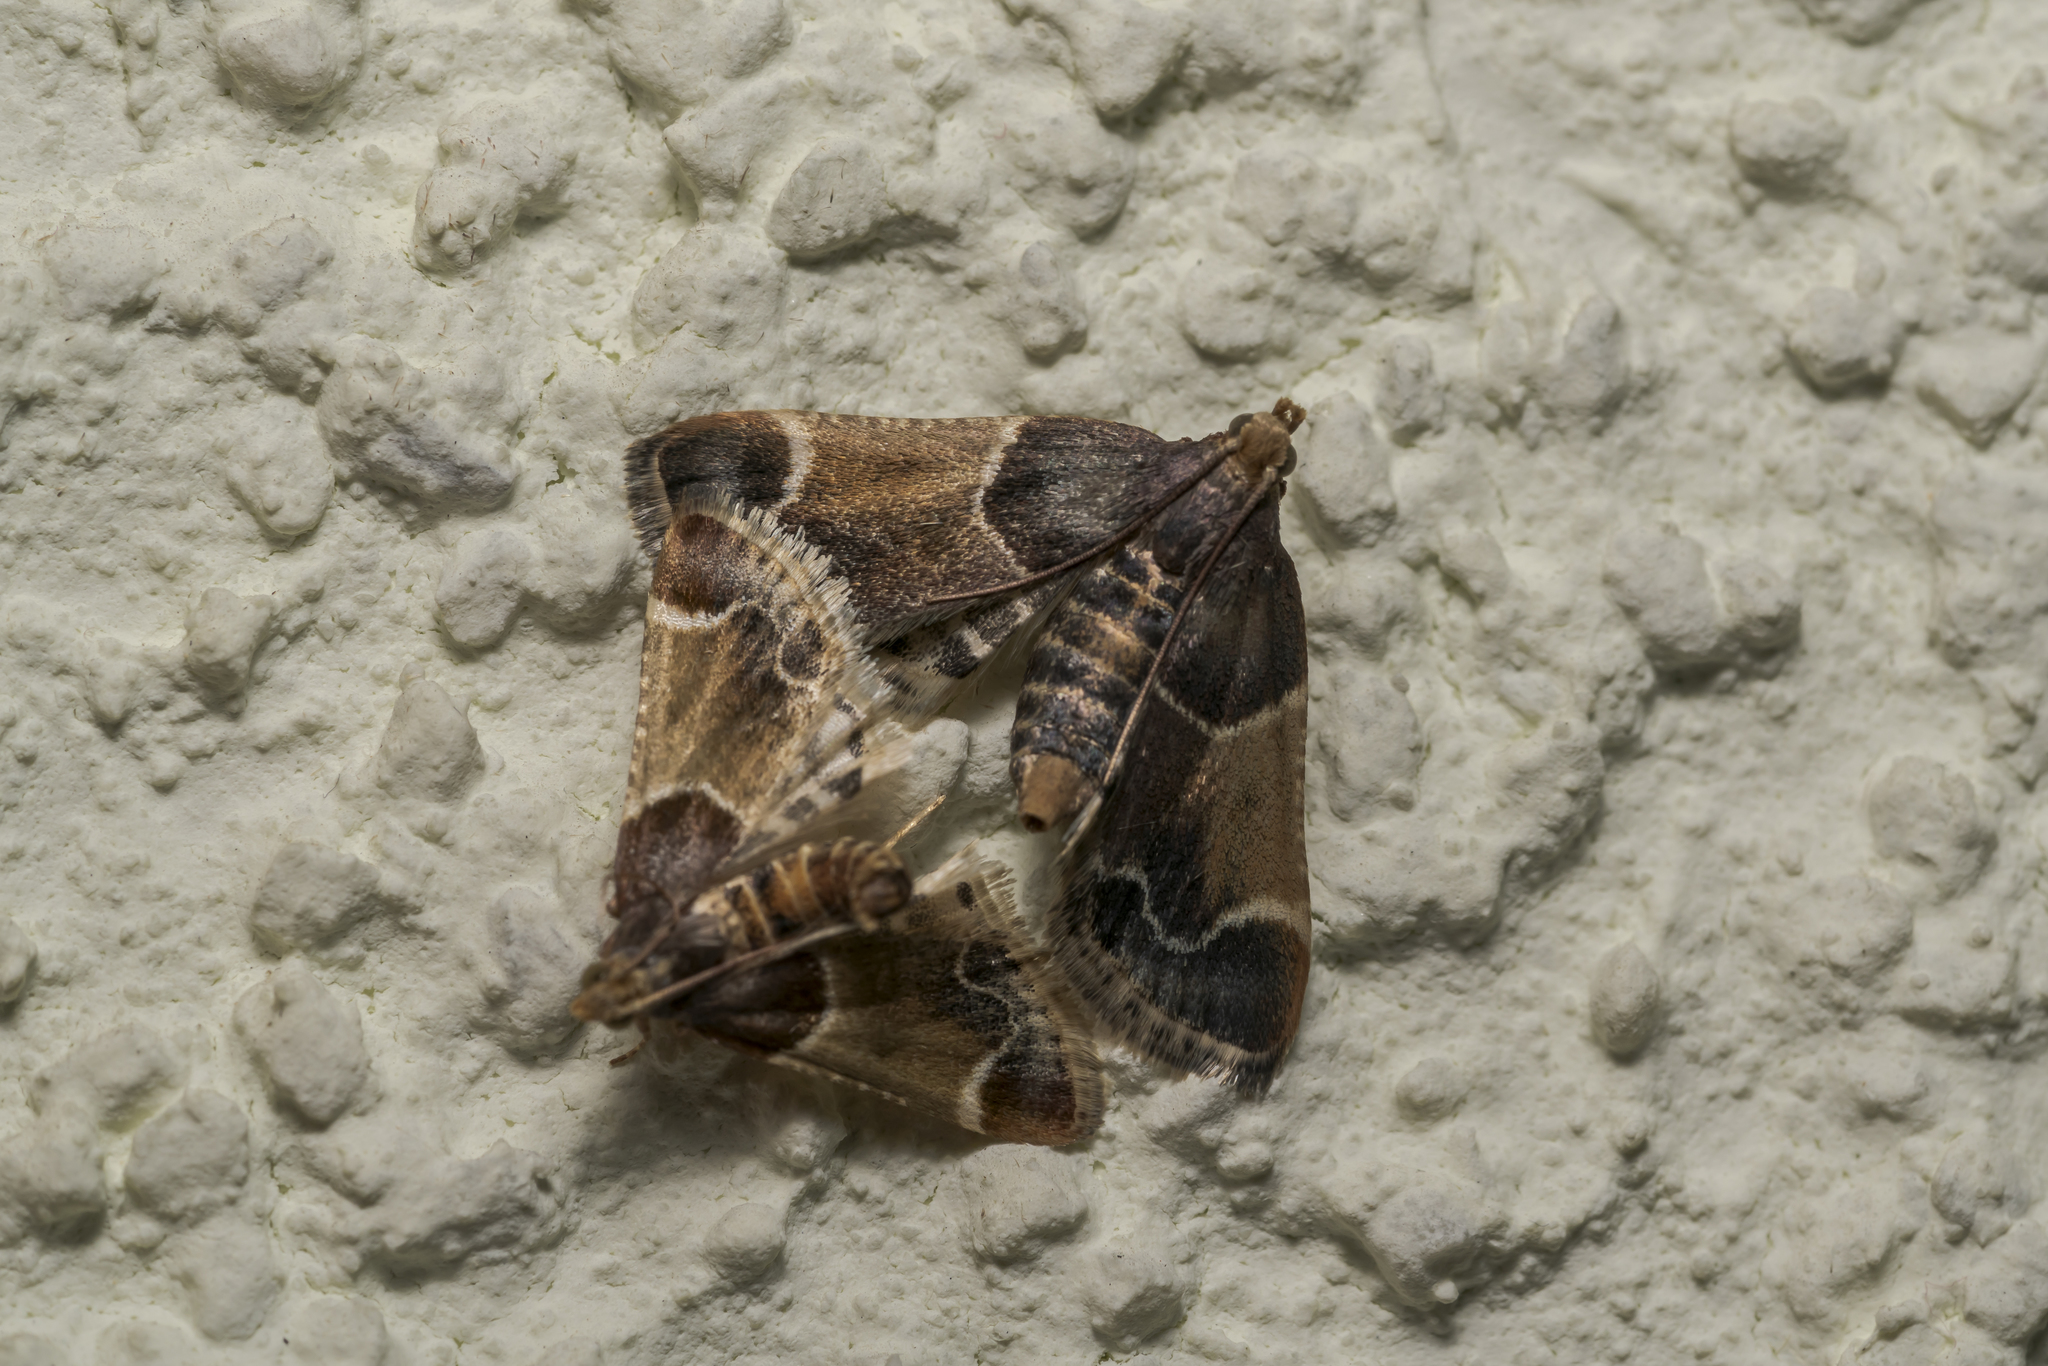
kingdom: Animalia
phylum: Arthropoda
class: Insecta
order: Lepidoptera
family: Pyralidae
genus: Pyralis
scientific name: Pyralis farinalis
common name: Meal moth
